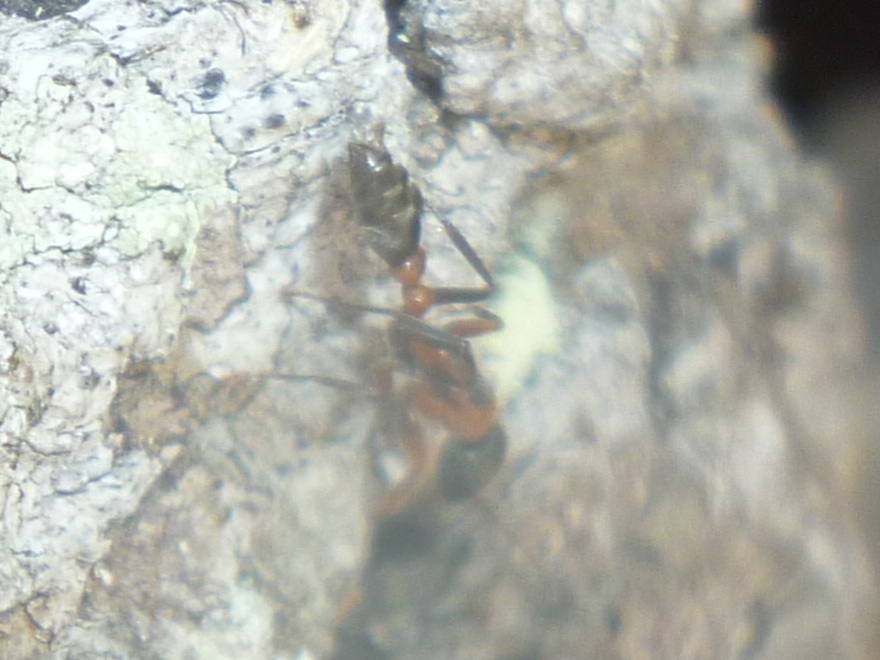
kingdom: Animalia
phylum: Arthropoda
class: Insecta
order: Hymenoptera
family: Formicidae
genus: Pseudomyrmex
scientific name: Pseudomyrmex gracilis
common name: Graceful twig ant
